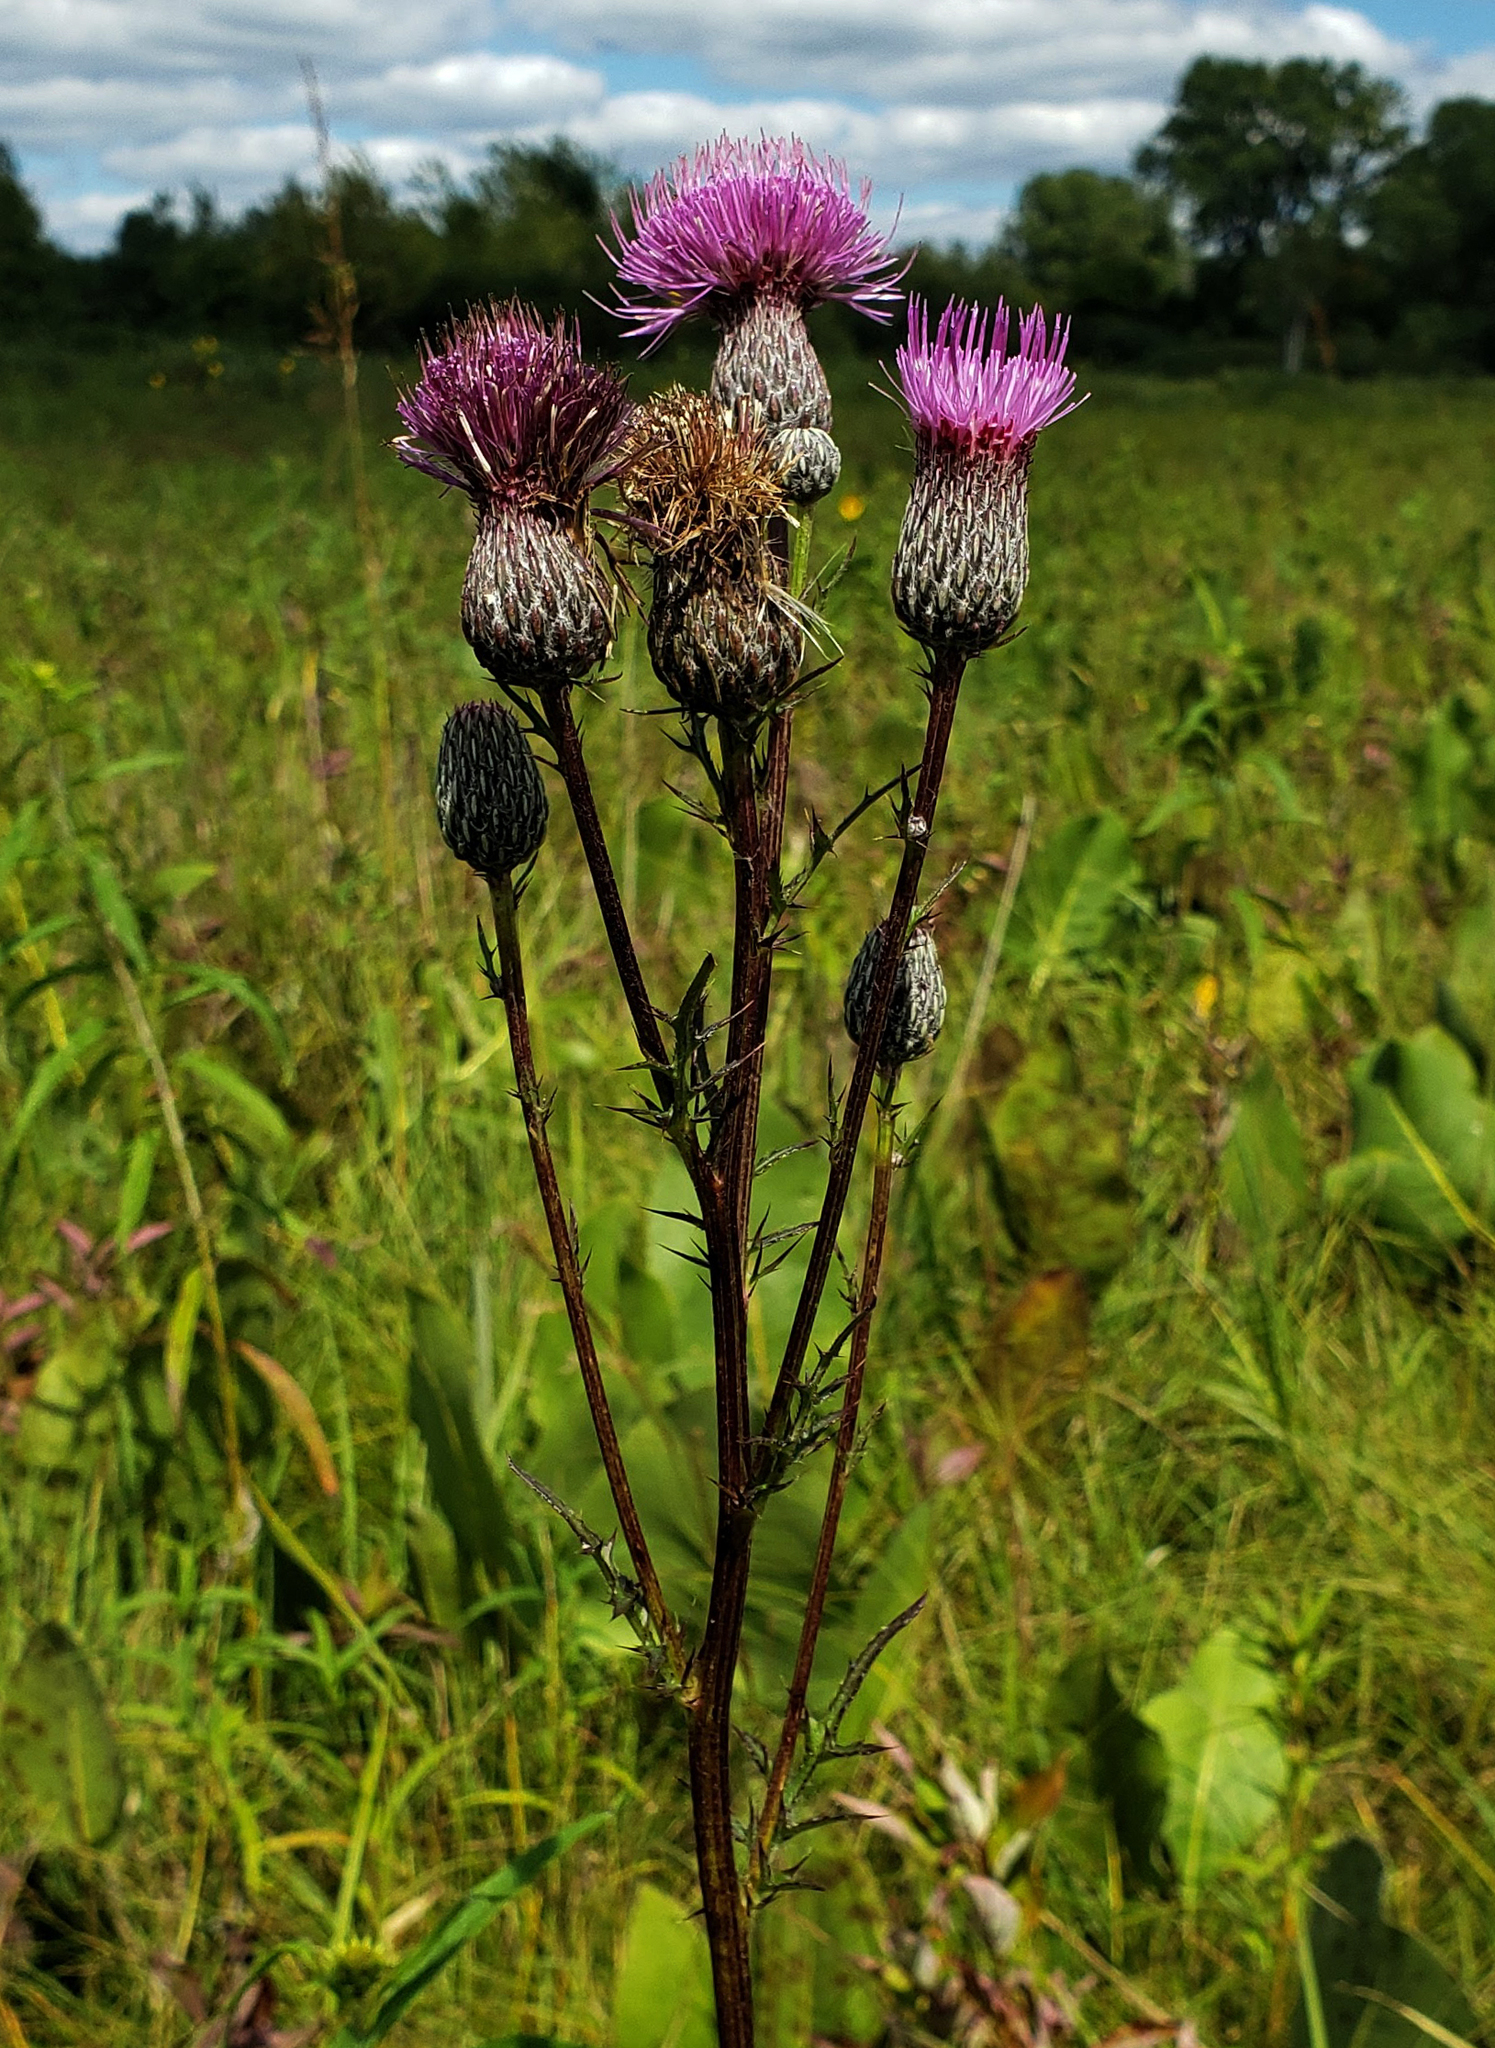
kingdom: Plantae
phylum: Tracheophyta
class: Magnoliopsida
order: Asterales
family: Asteraceae
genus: Cirsium
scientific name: Cirsium muticum
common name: Dunce-nettle
